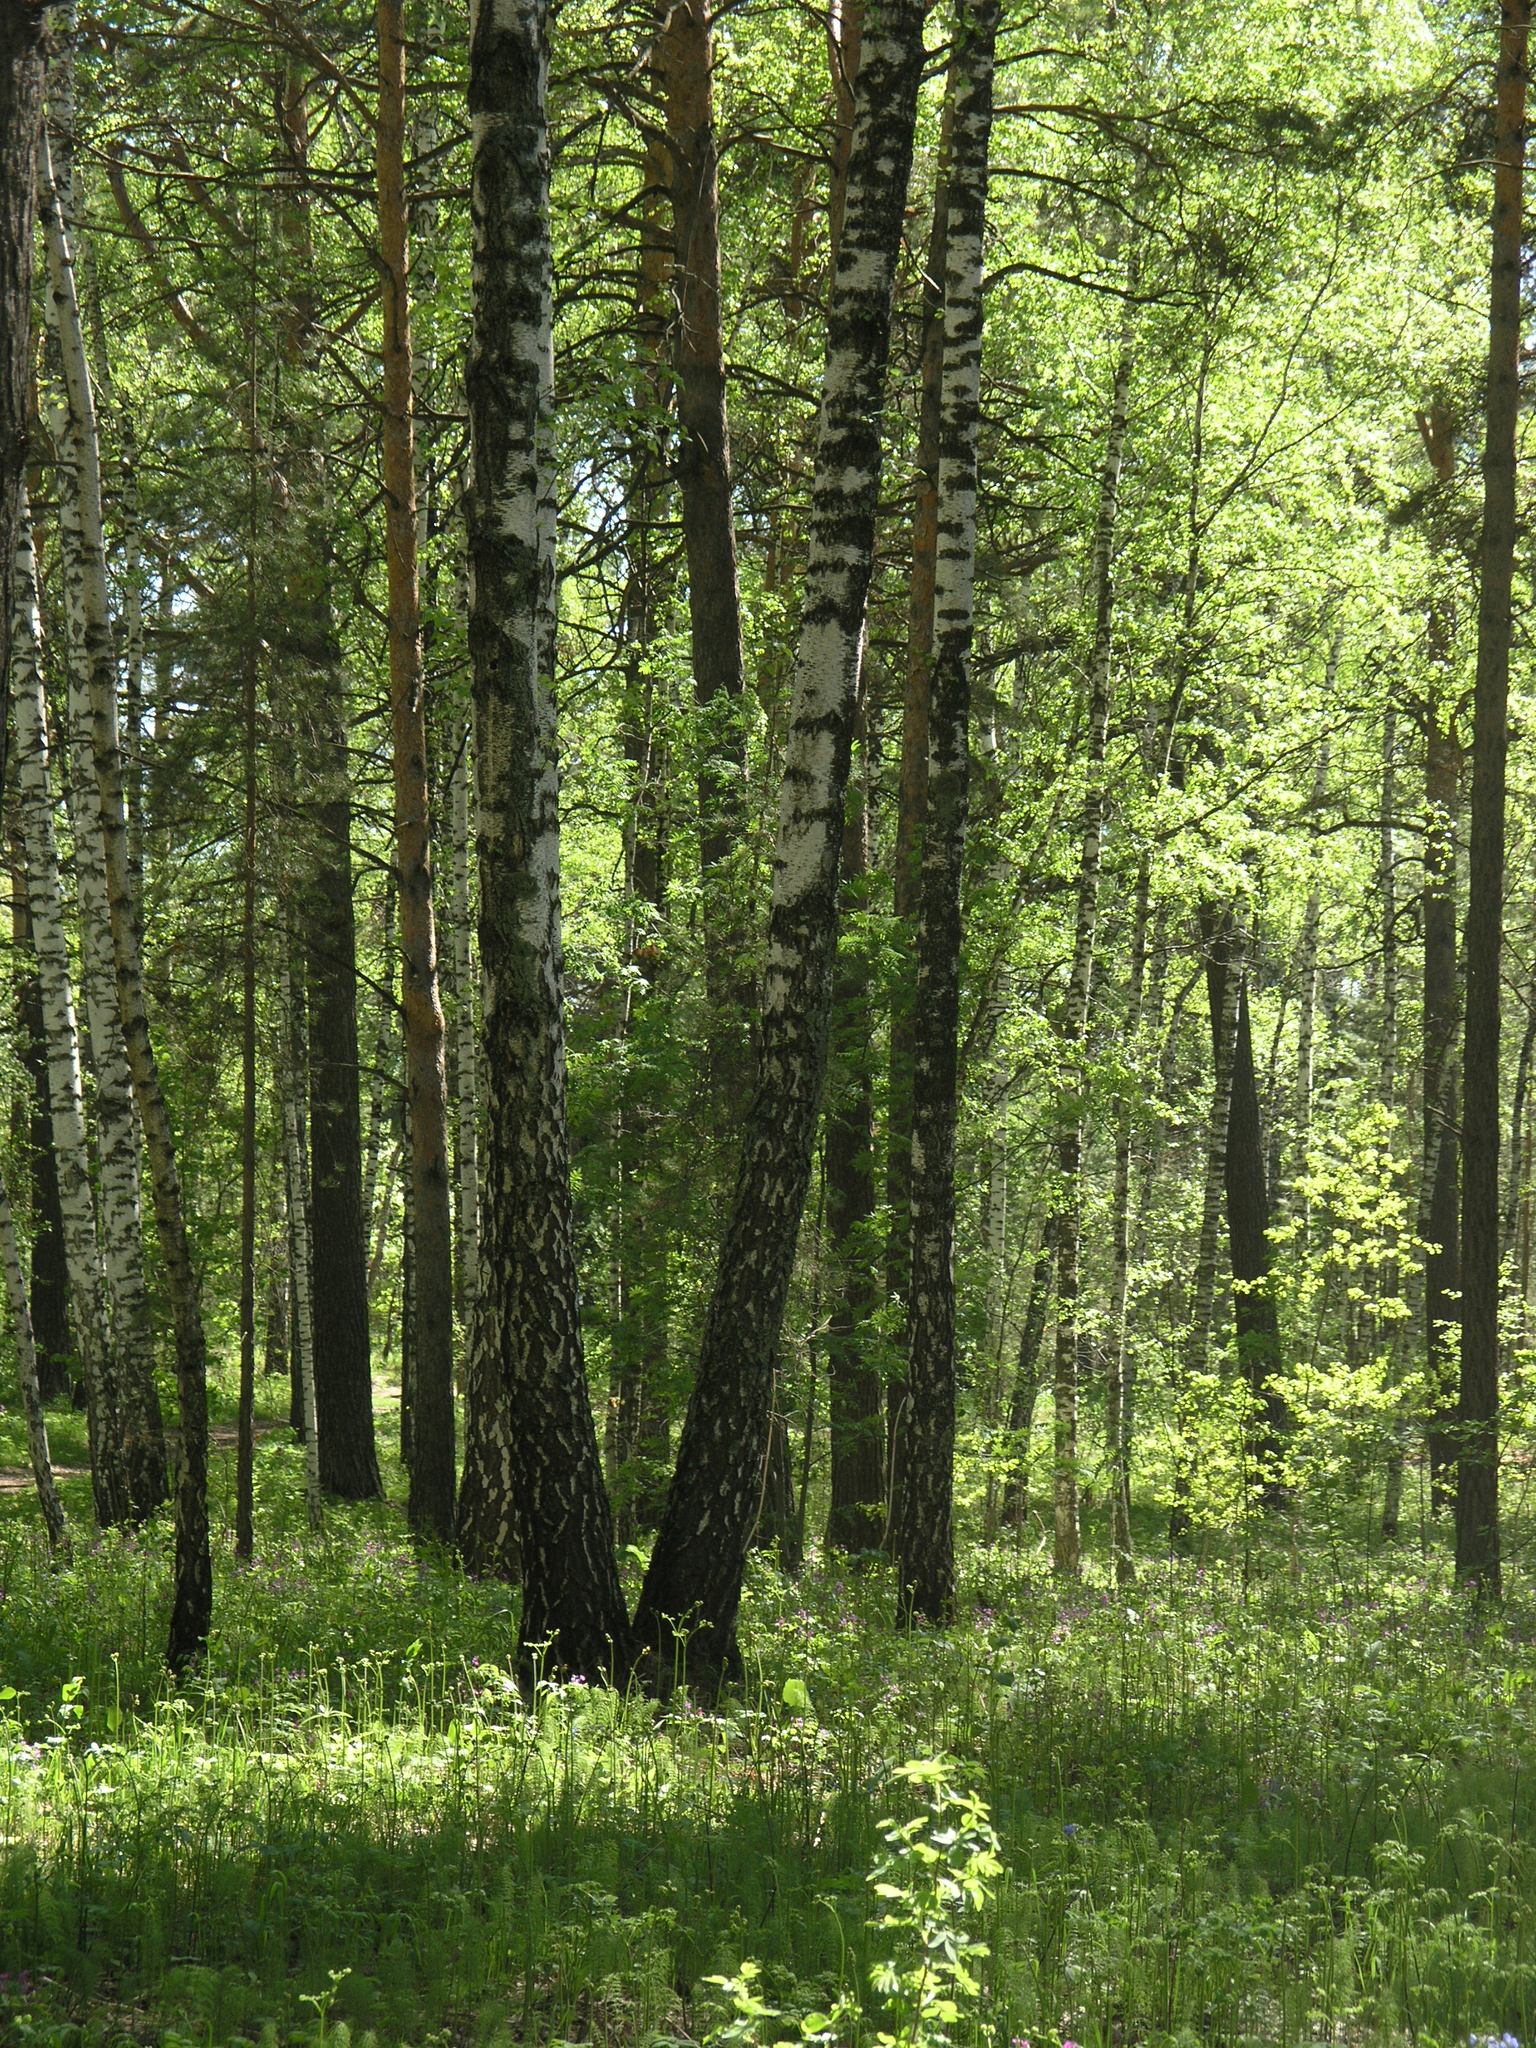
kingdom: Plantae
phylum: Tracheophyta
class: Magnoliopsida
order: Fagales
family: Betulaceae
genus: Betula
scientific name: Betula pendula
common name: Silver birch
